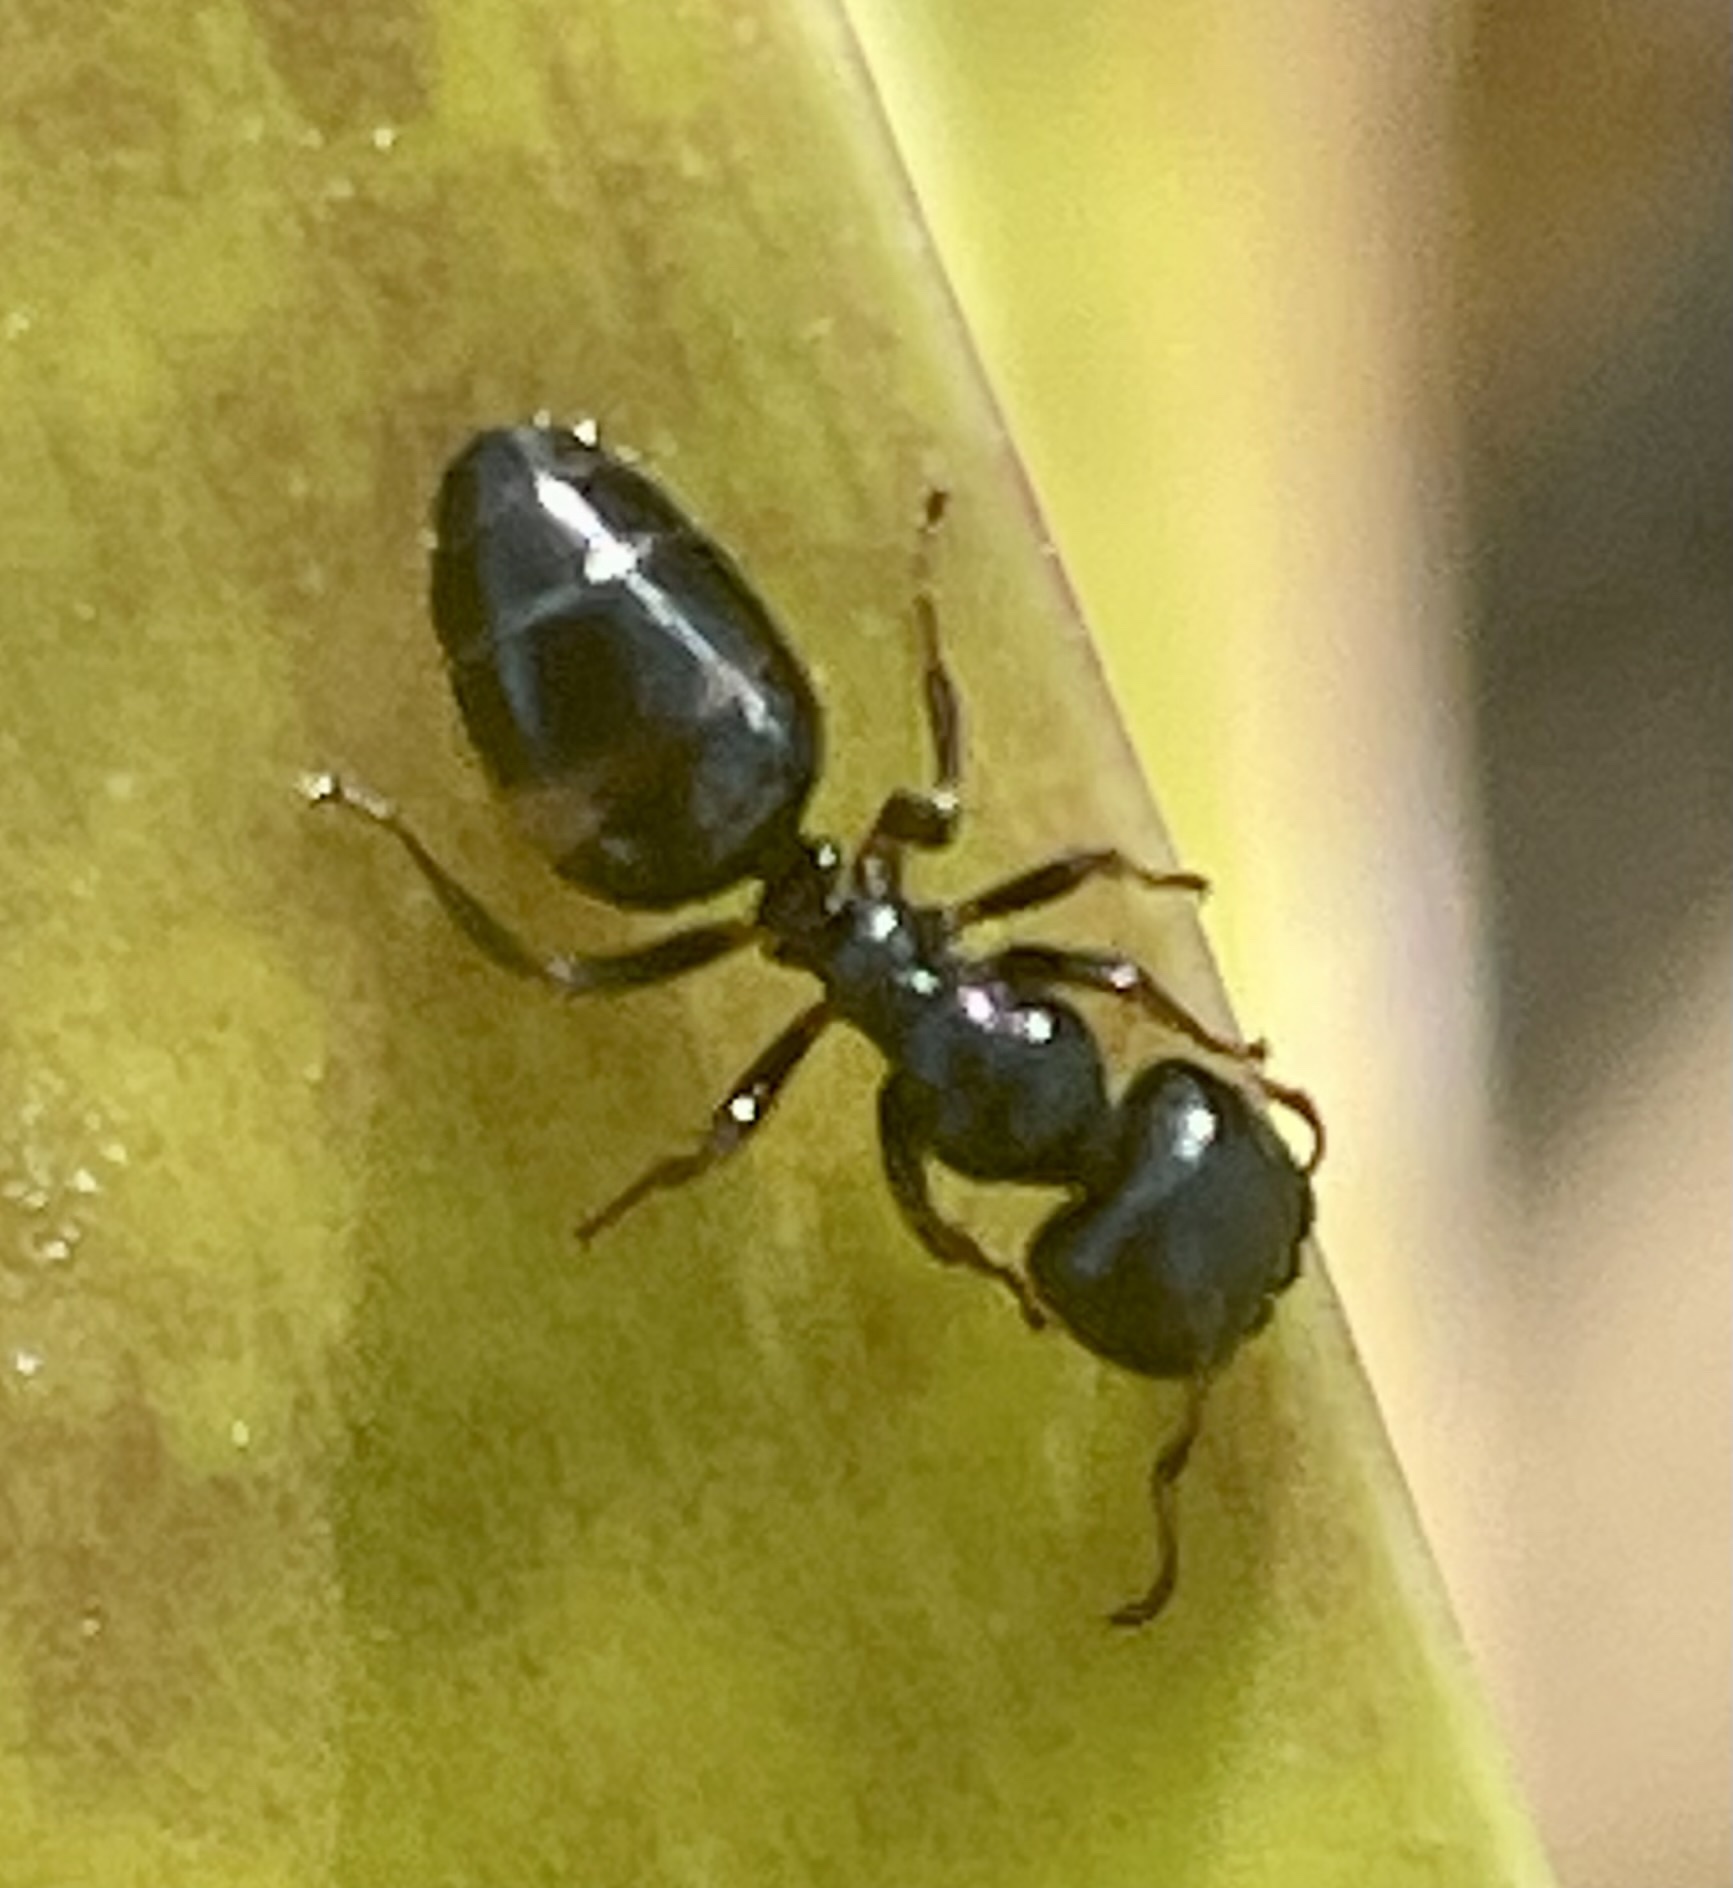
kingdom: Animalia
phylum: Arthropoda
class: Insecta
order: Hymenoptera
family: Formicidae
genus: Colobopsis
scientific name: Colobopsis gasseri
